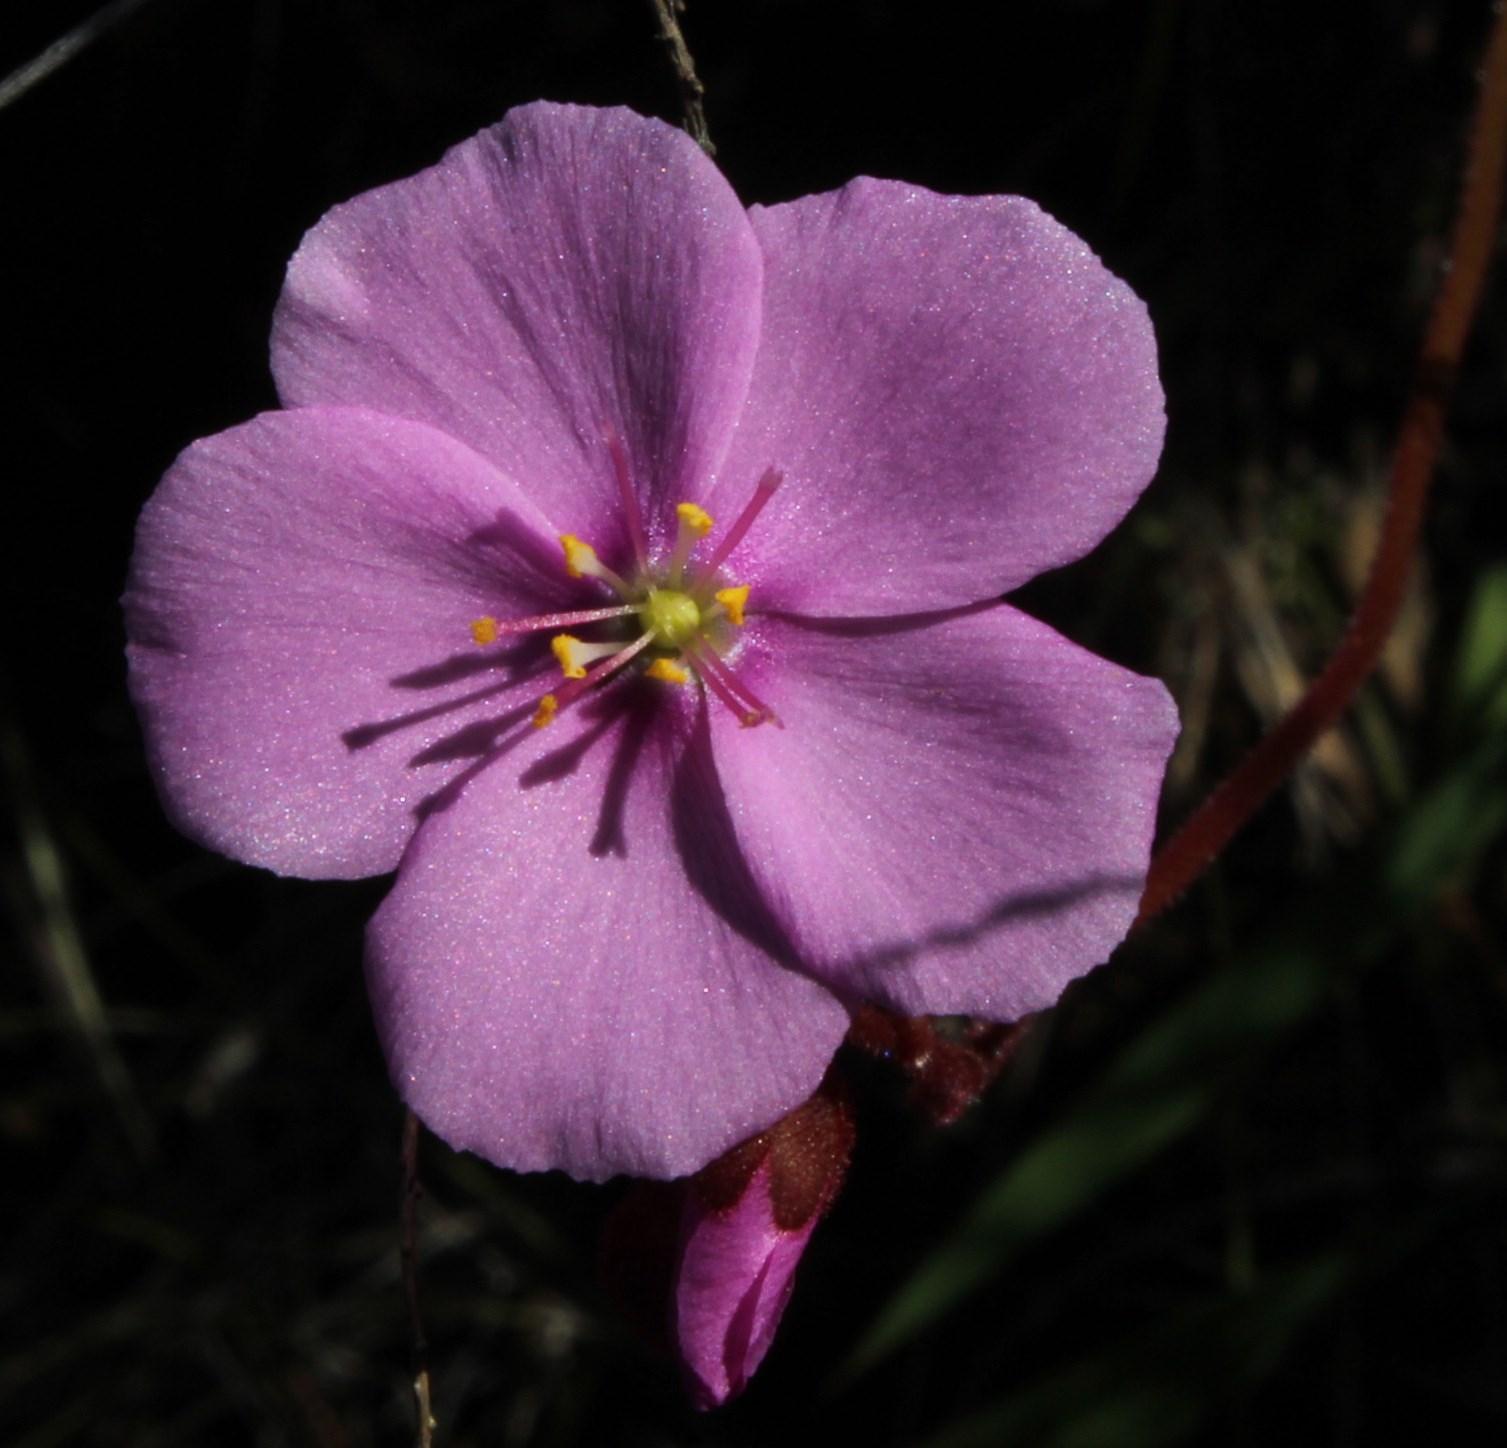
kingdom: Plantae
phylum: Tracheophyta
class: Magnoliopsida
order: Caryophyllales
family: Droseraceae
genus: Drosera
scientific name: Drosera hilaris
